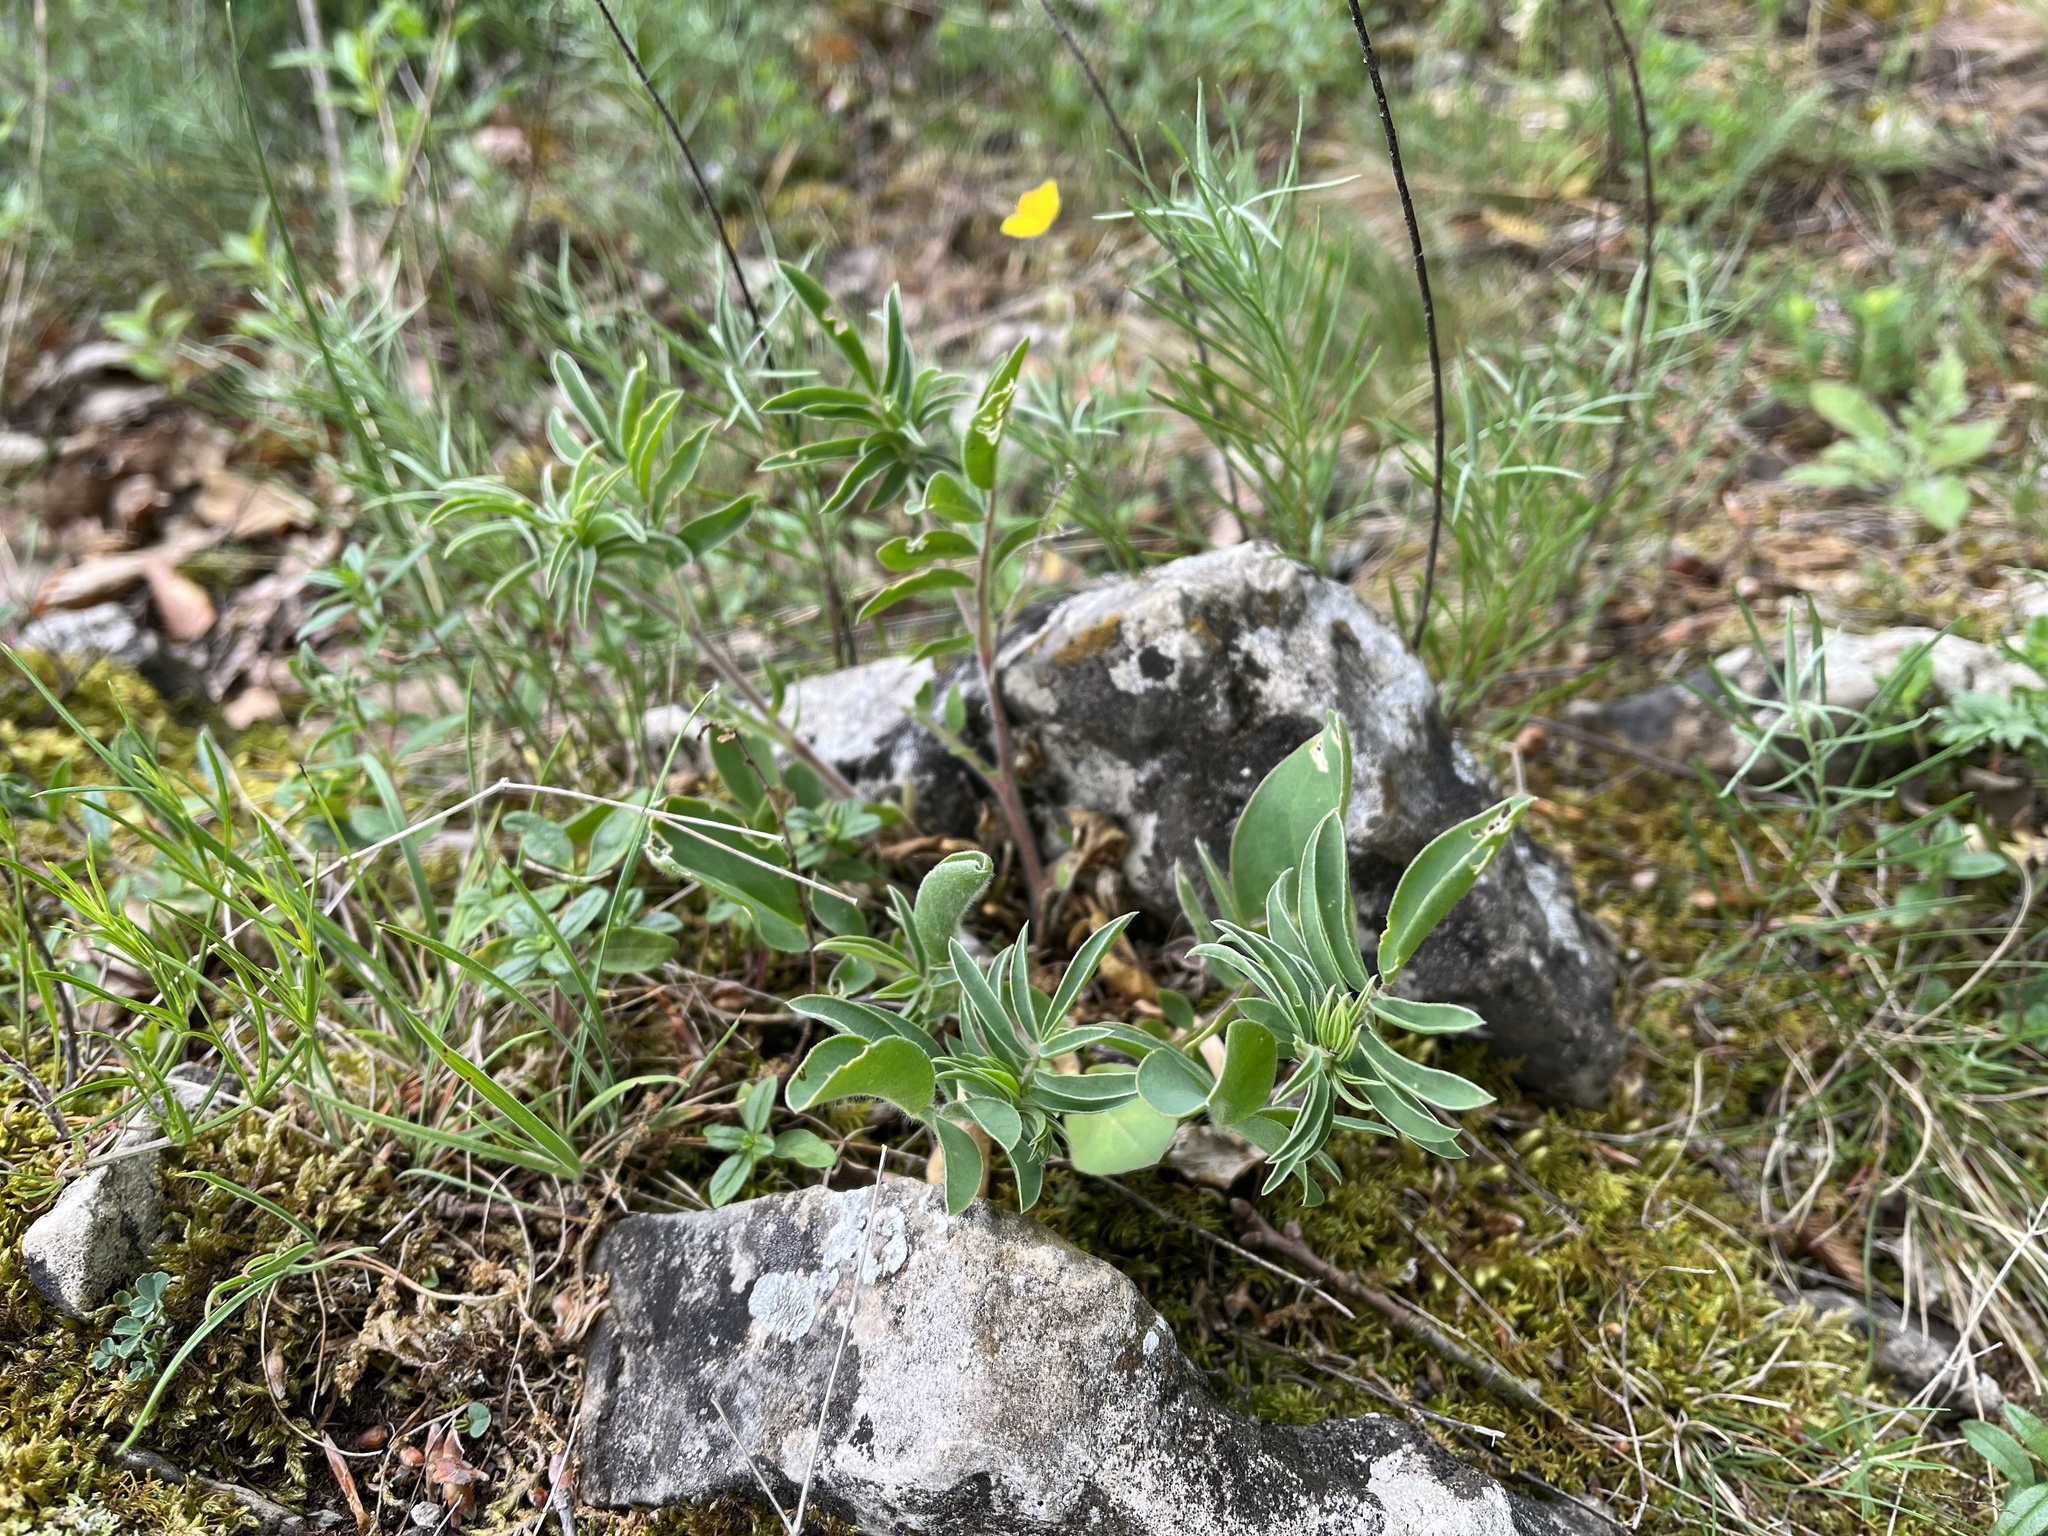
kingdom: Plantae
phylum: Tracheophyta
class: Magnoliopsida
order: Fabales
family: Fabaceae
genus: Anthyllis
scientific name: Anthyllis vulneraria
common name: Kidney vetch
